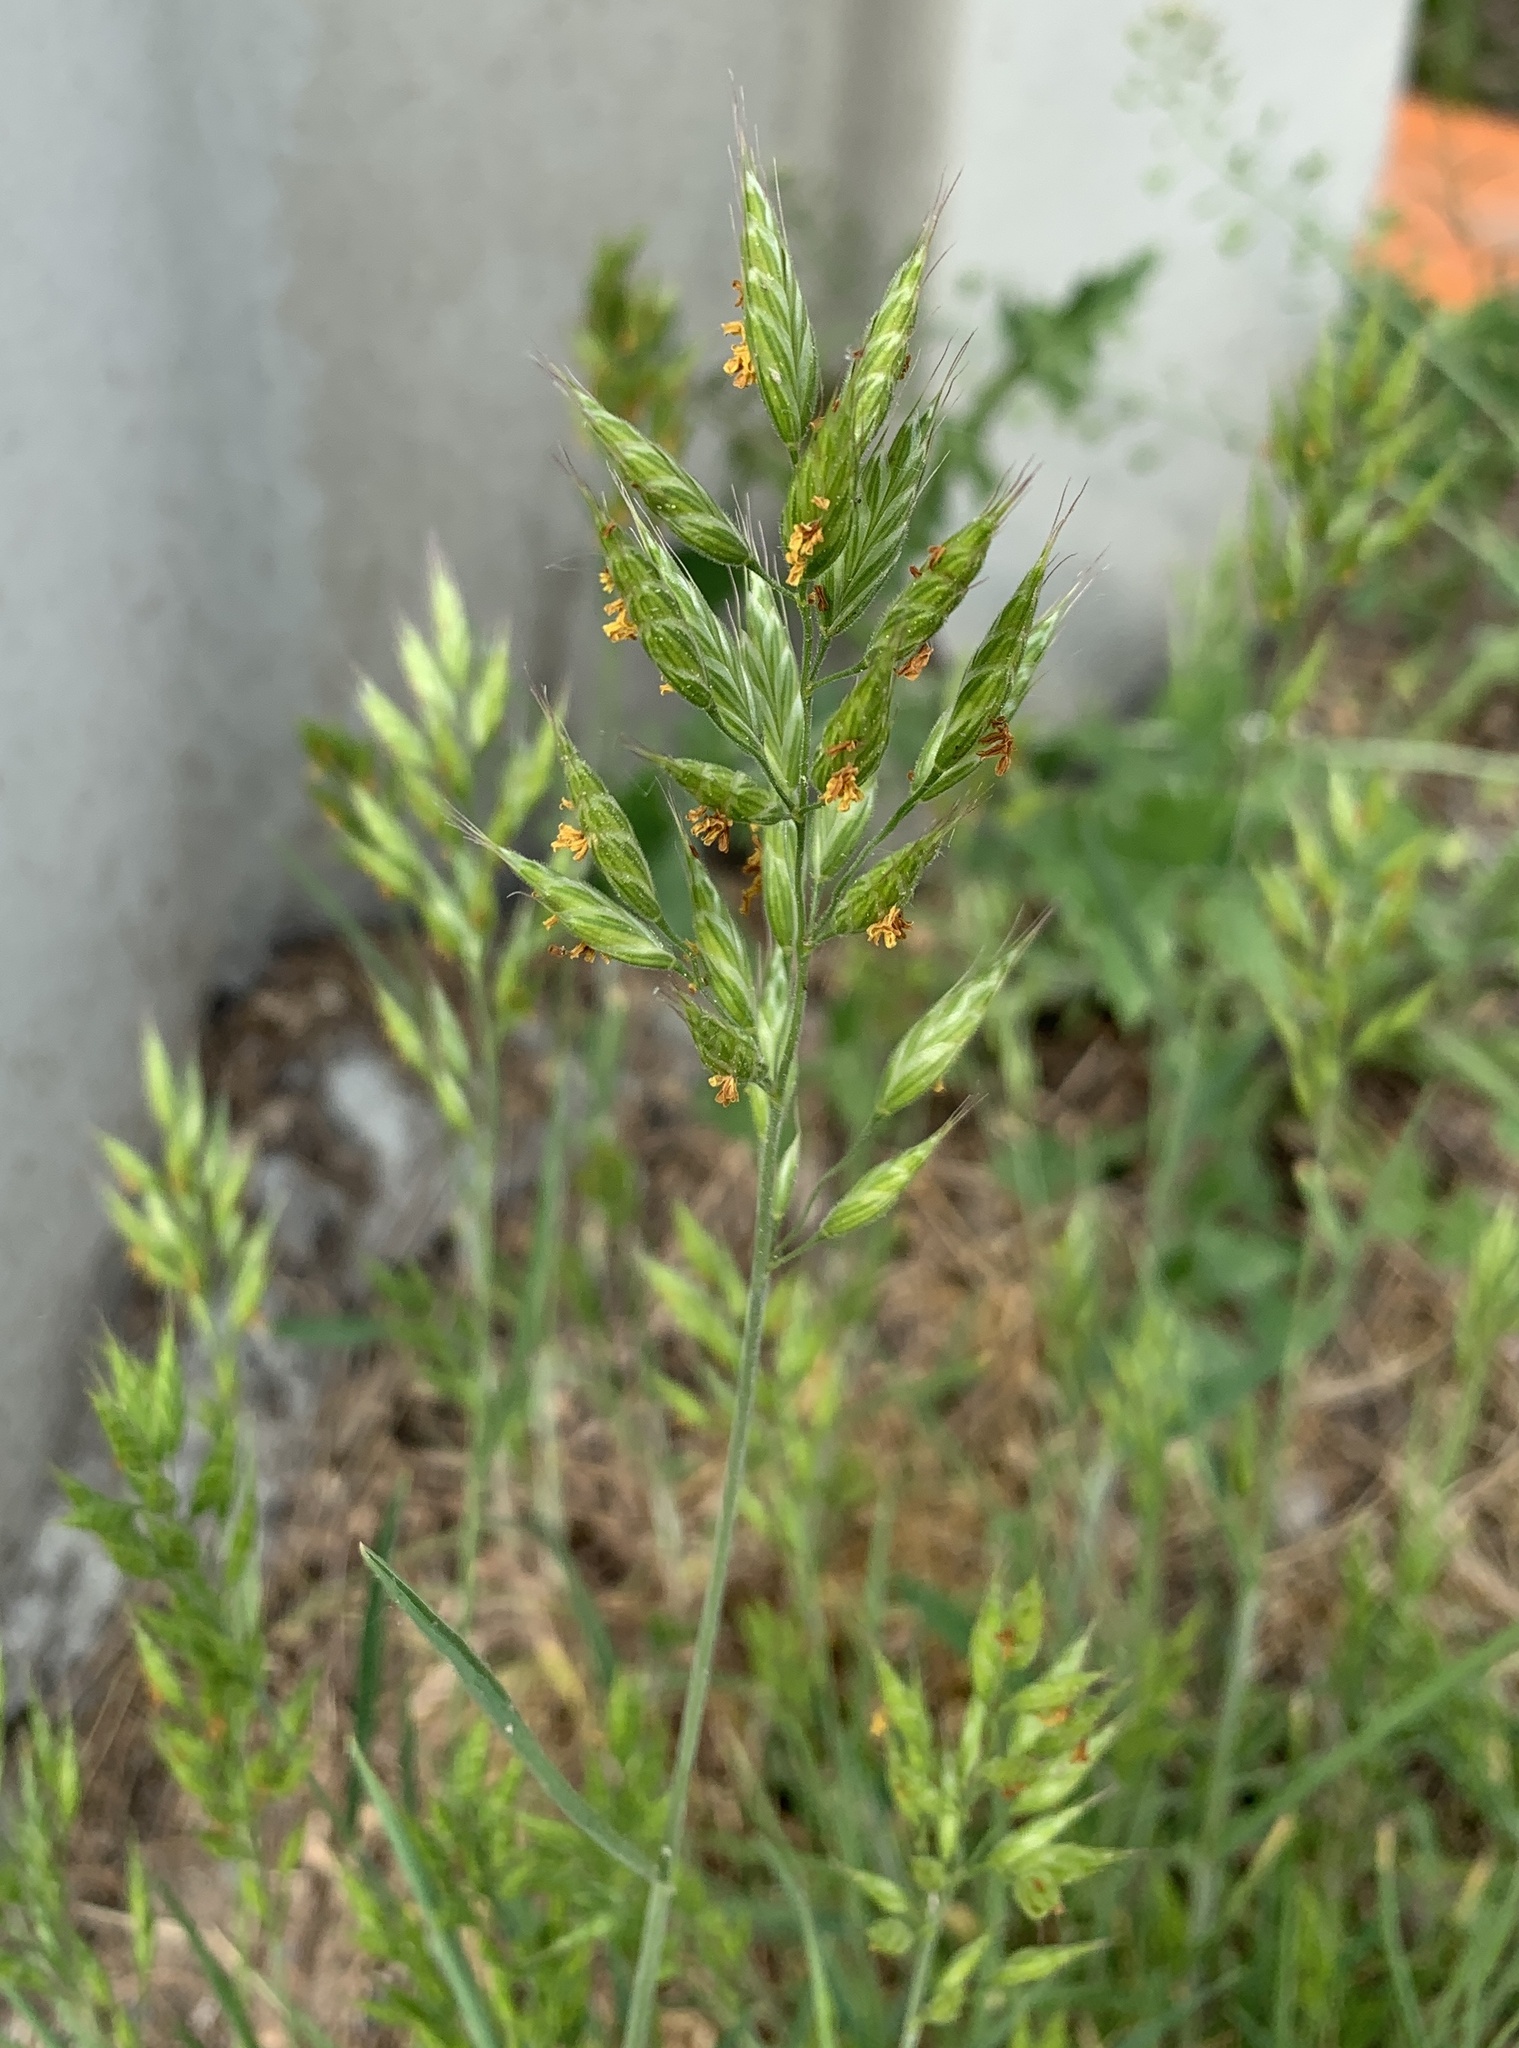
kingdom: Plantae
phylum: Tracheophyta
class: Liliopsida
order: Poales
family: Poaceae
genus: Bromus
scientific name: Bromus hordeaceus
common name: Soft brome
